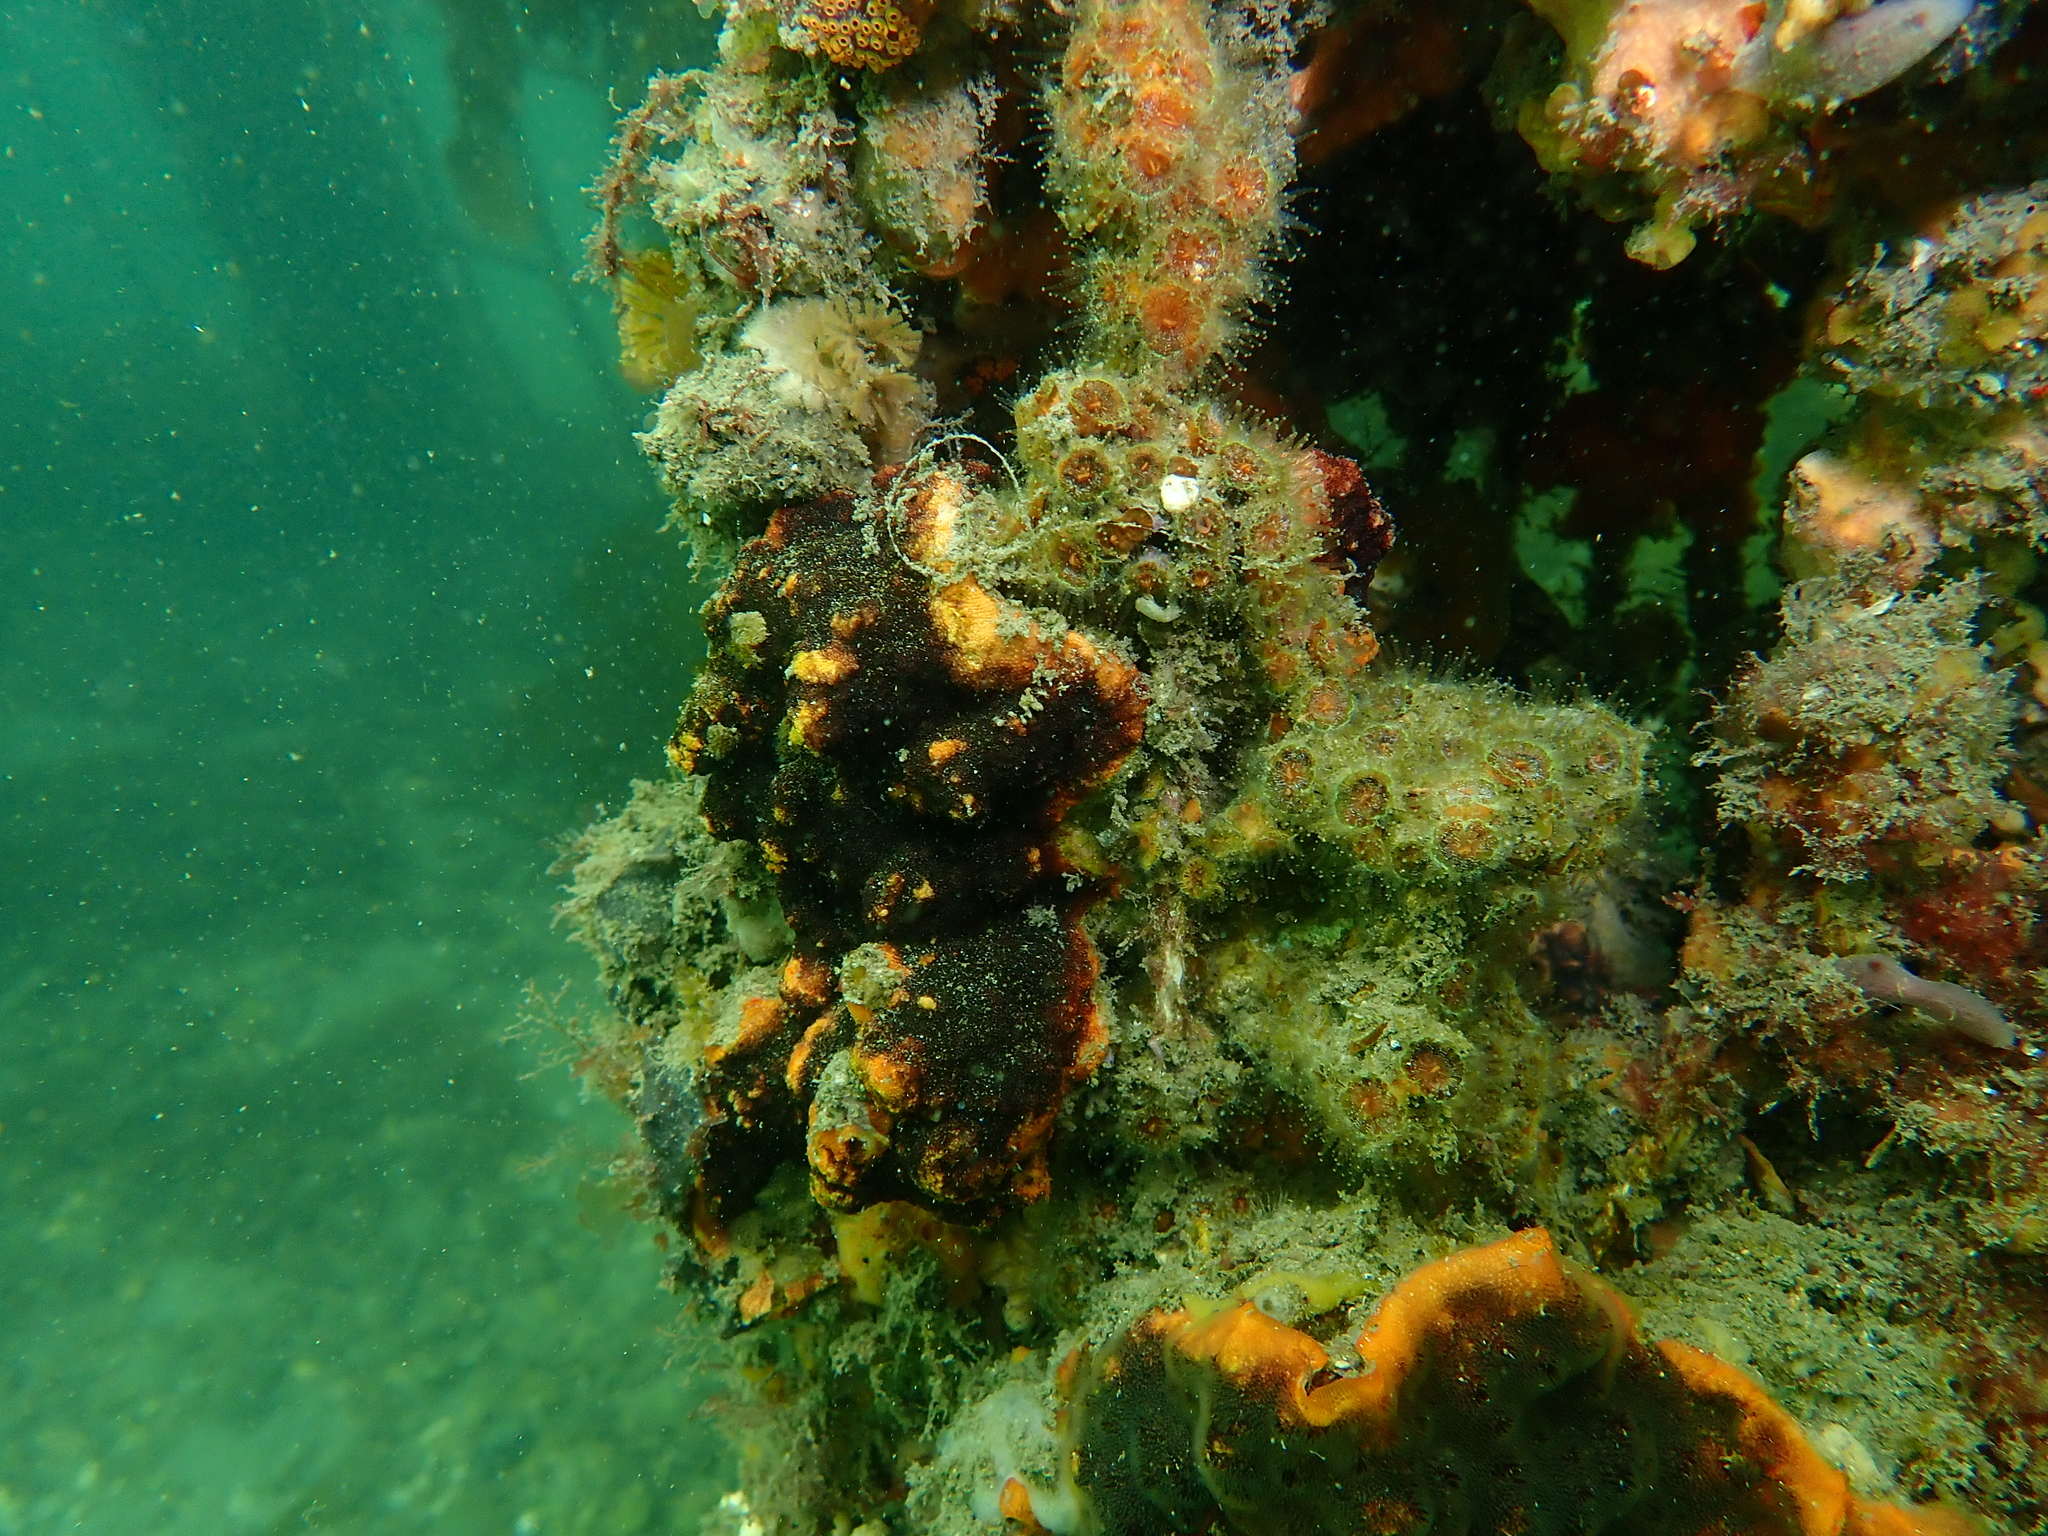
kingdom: Animalia
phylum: Cnidaria
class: Anthozoa
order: Scleractinia
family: Rhizangiidae
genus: Culicia
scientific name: Culicia tenella
